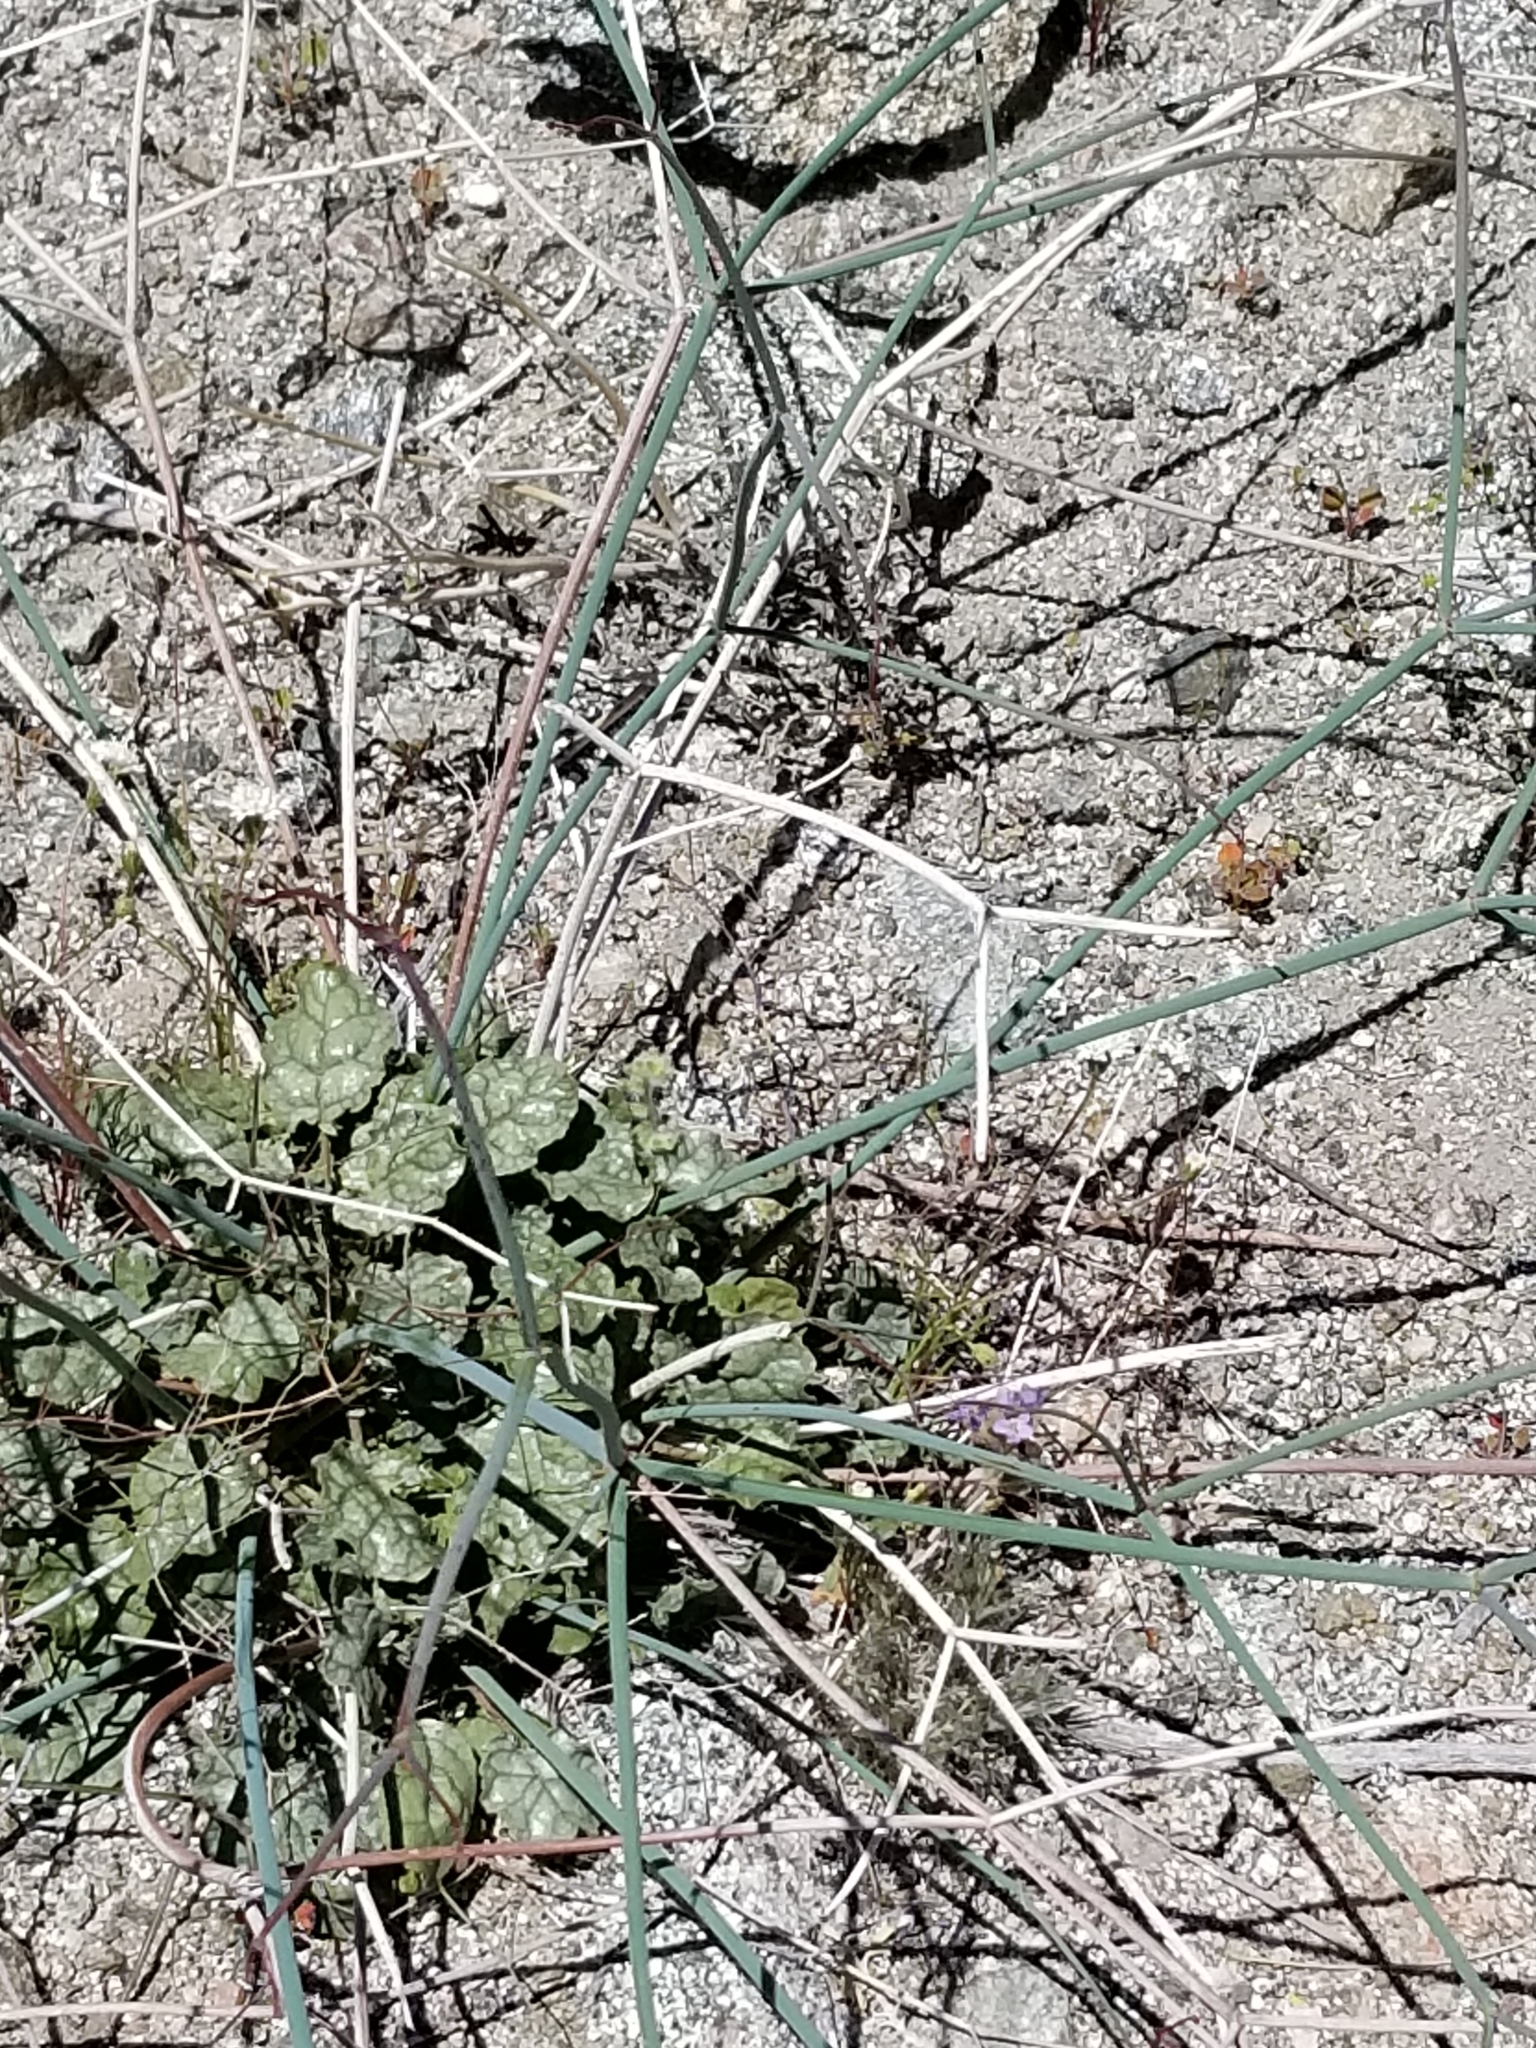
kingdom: Plantae
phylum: Tracheophyta
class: Magnoliopsida
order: Caryophyllales
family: Polygonaceae
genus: Eriogonum
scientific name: Eriogonum inflatum
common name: Desert trumpet
